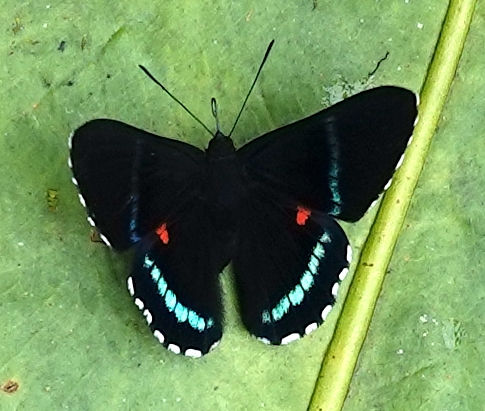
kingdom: Animalia
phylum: Arthropoda
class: Insecta
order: Lepidoptera
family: Lycaenidae
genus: Necyria
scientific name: Necyria bellona
